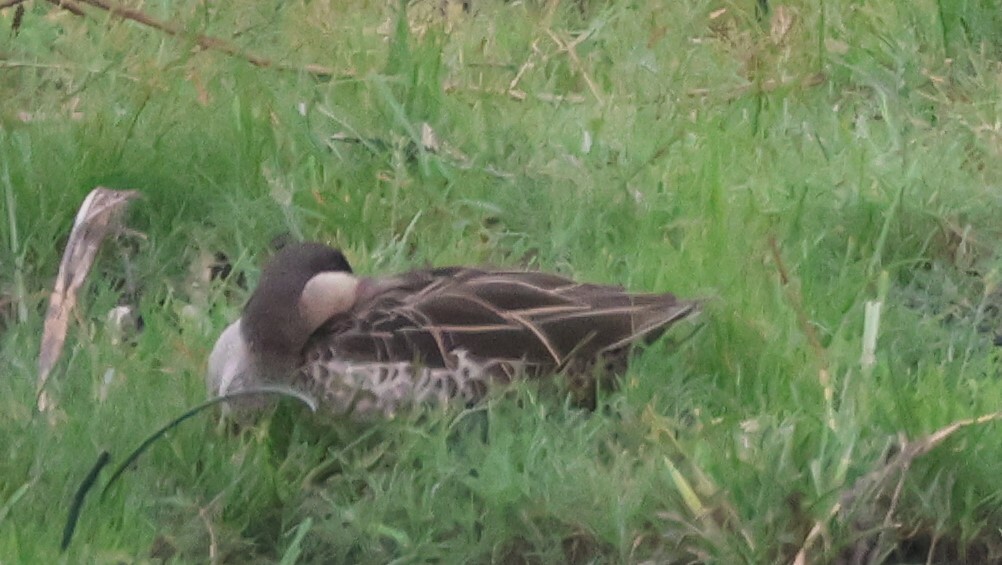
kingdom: Animalia
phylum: Chordata
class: Aves
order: Anseriformes
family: Anatidae
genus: Anas
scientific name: Anas erythrorhyncha
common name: Red-billed teal
